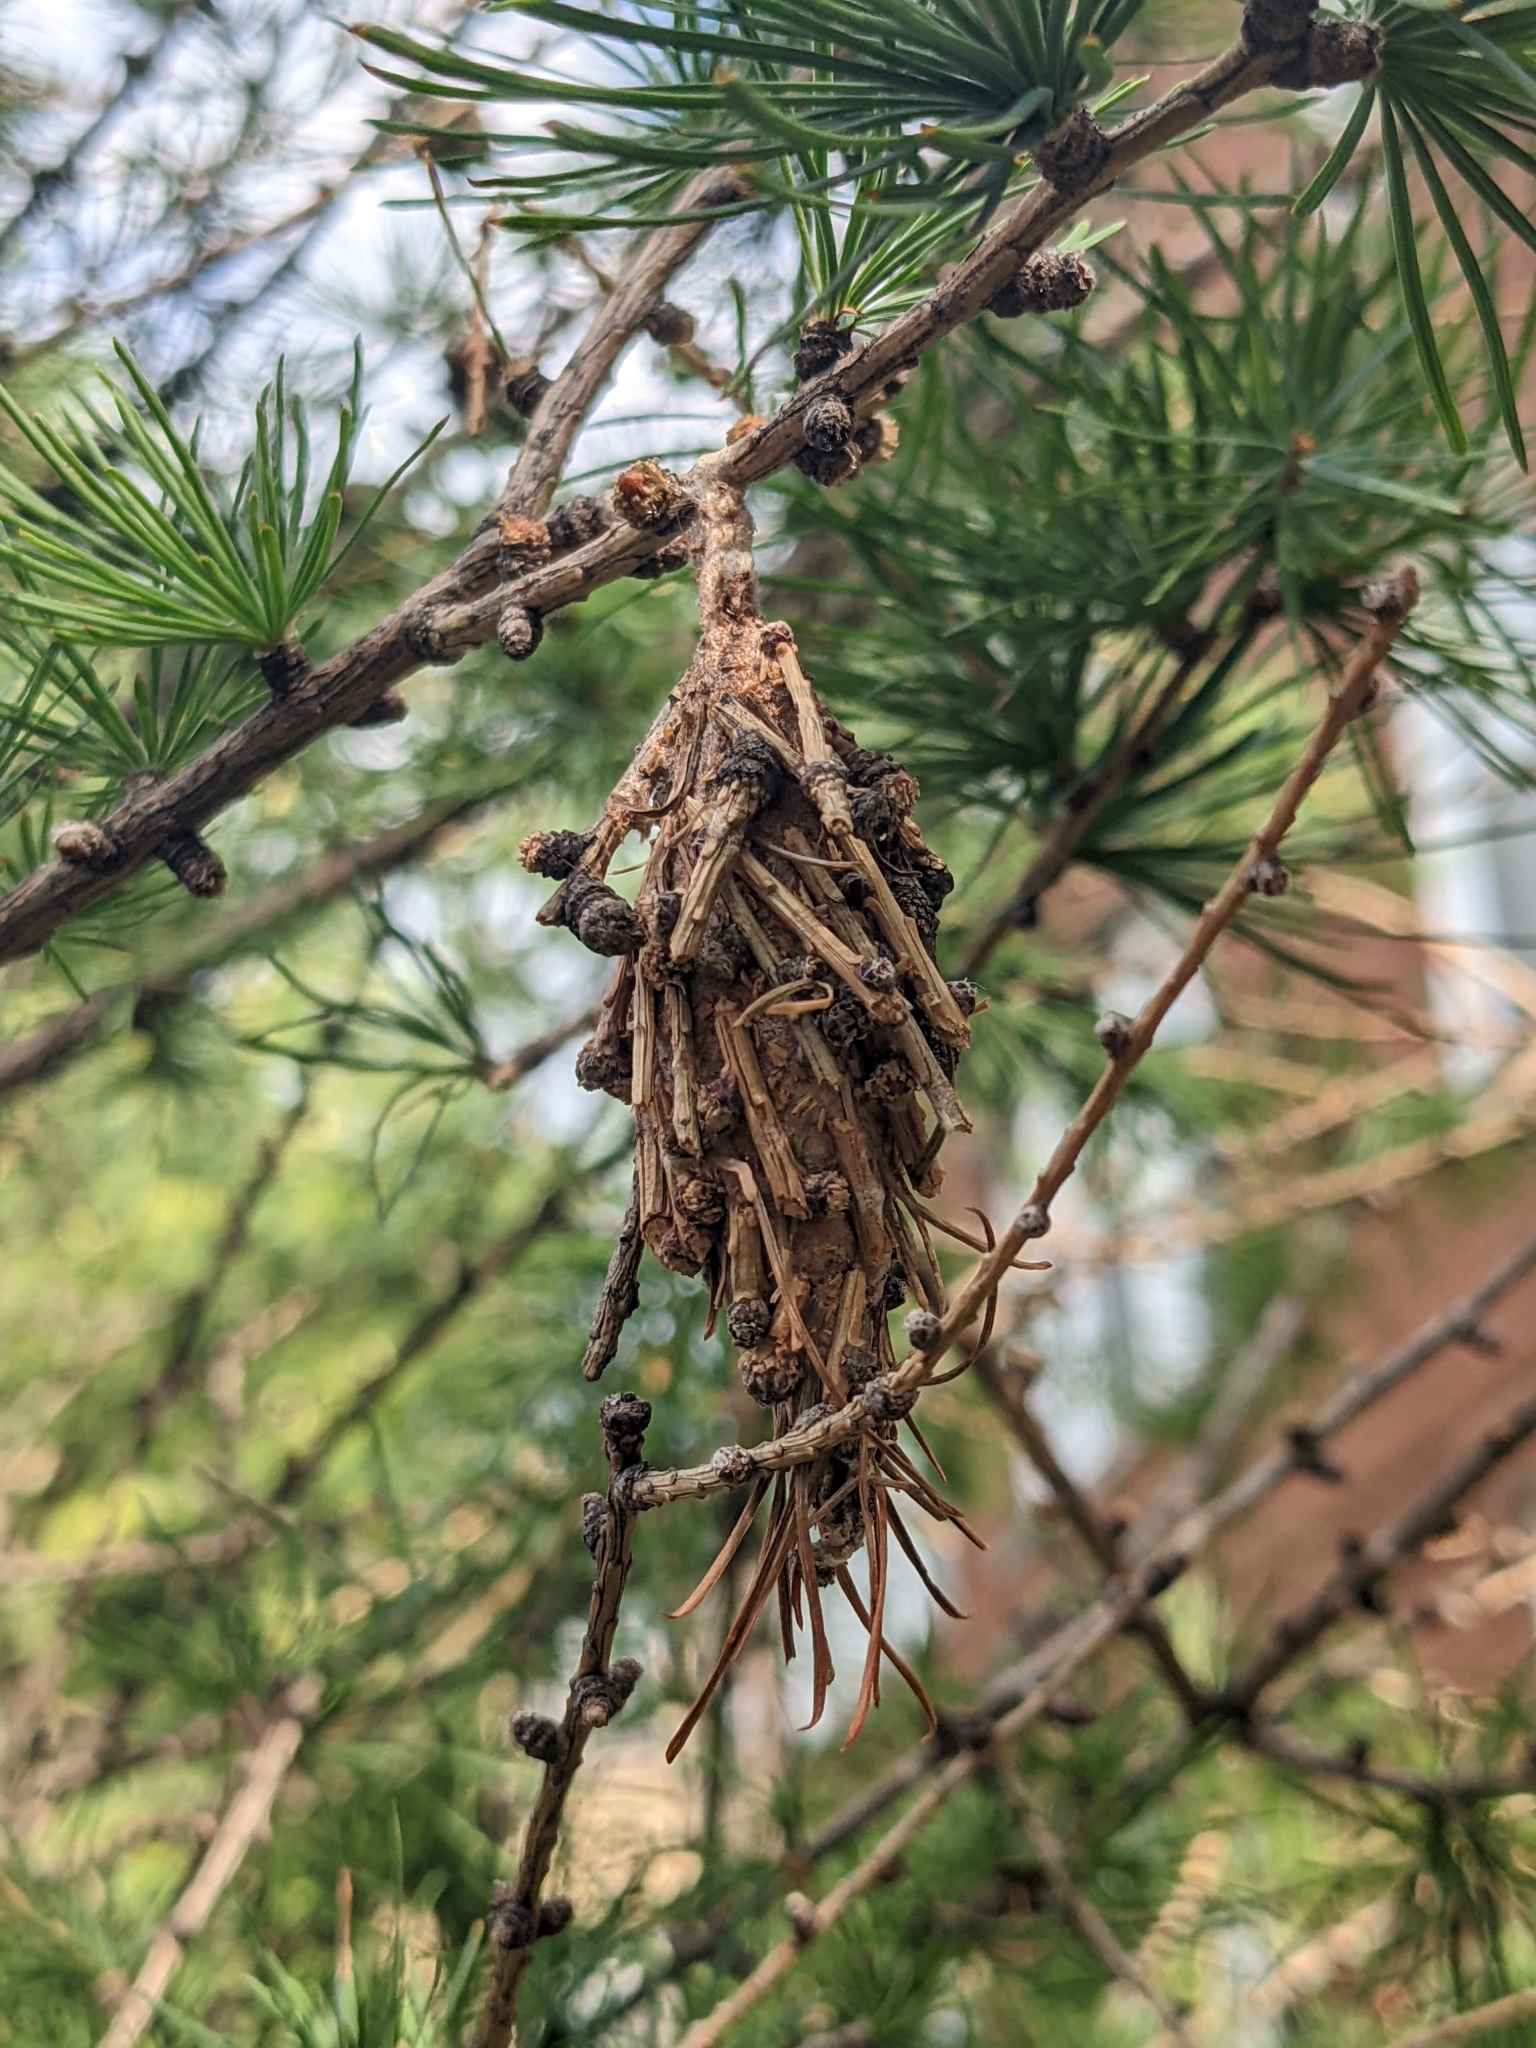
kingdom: Animalia
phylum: Arthropoda
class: Insecta
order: Lepidoptera
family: Psychidae
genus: Thyridopteryx
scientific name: Thyridopteryx ephemeraeformis
